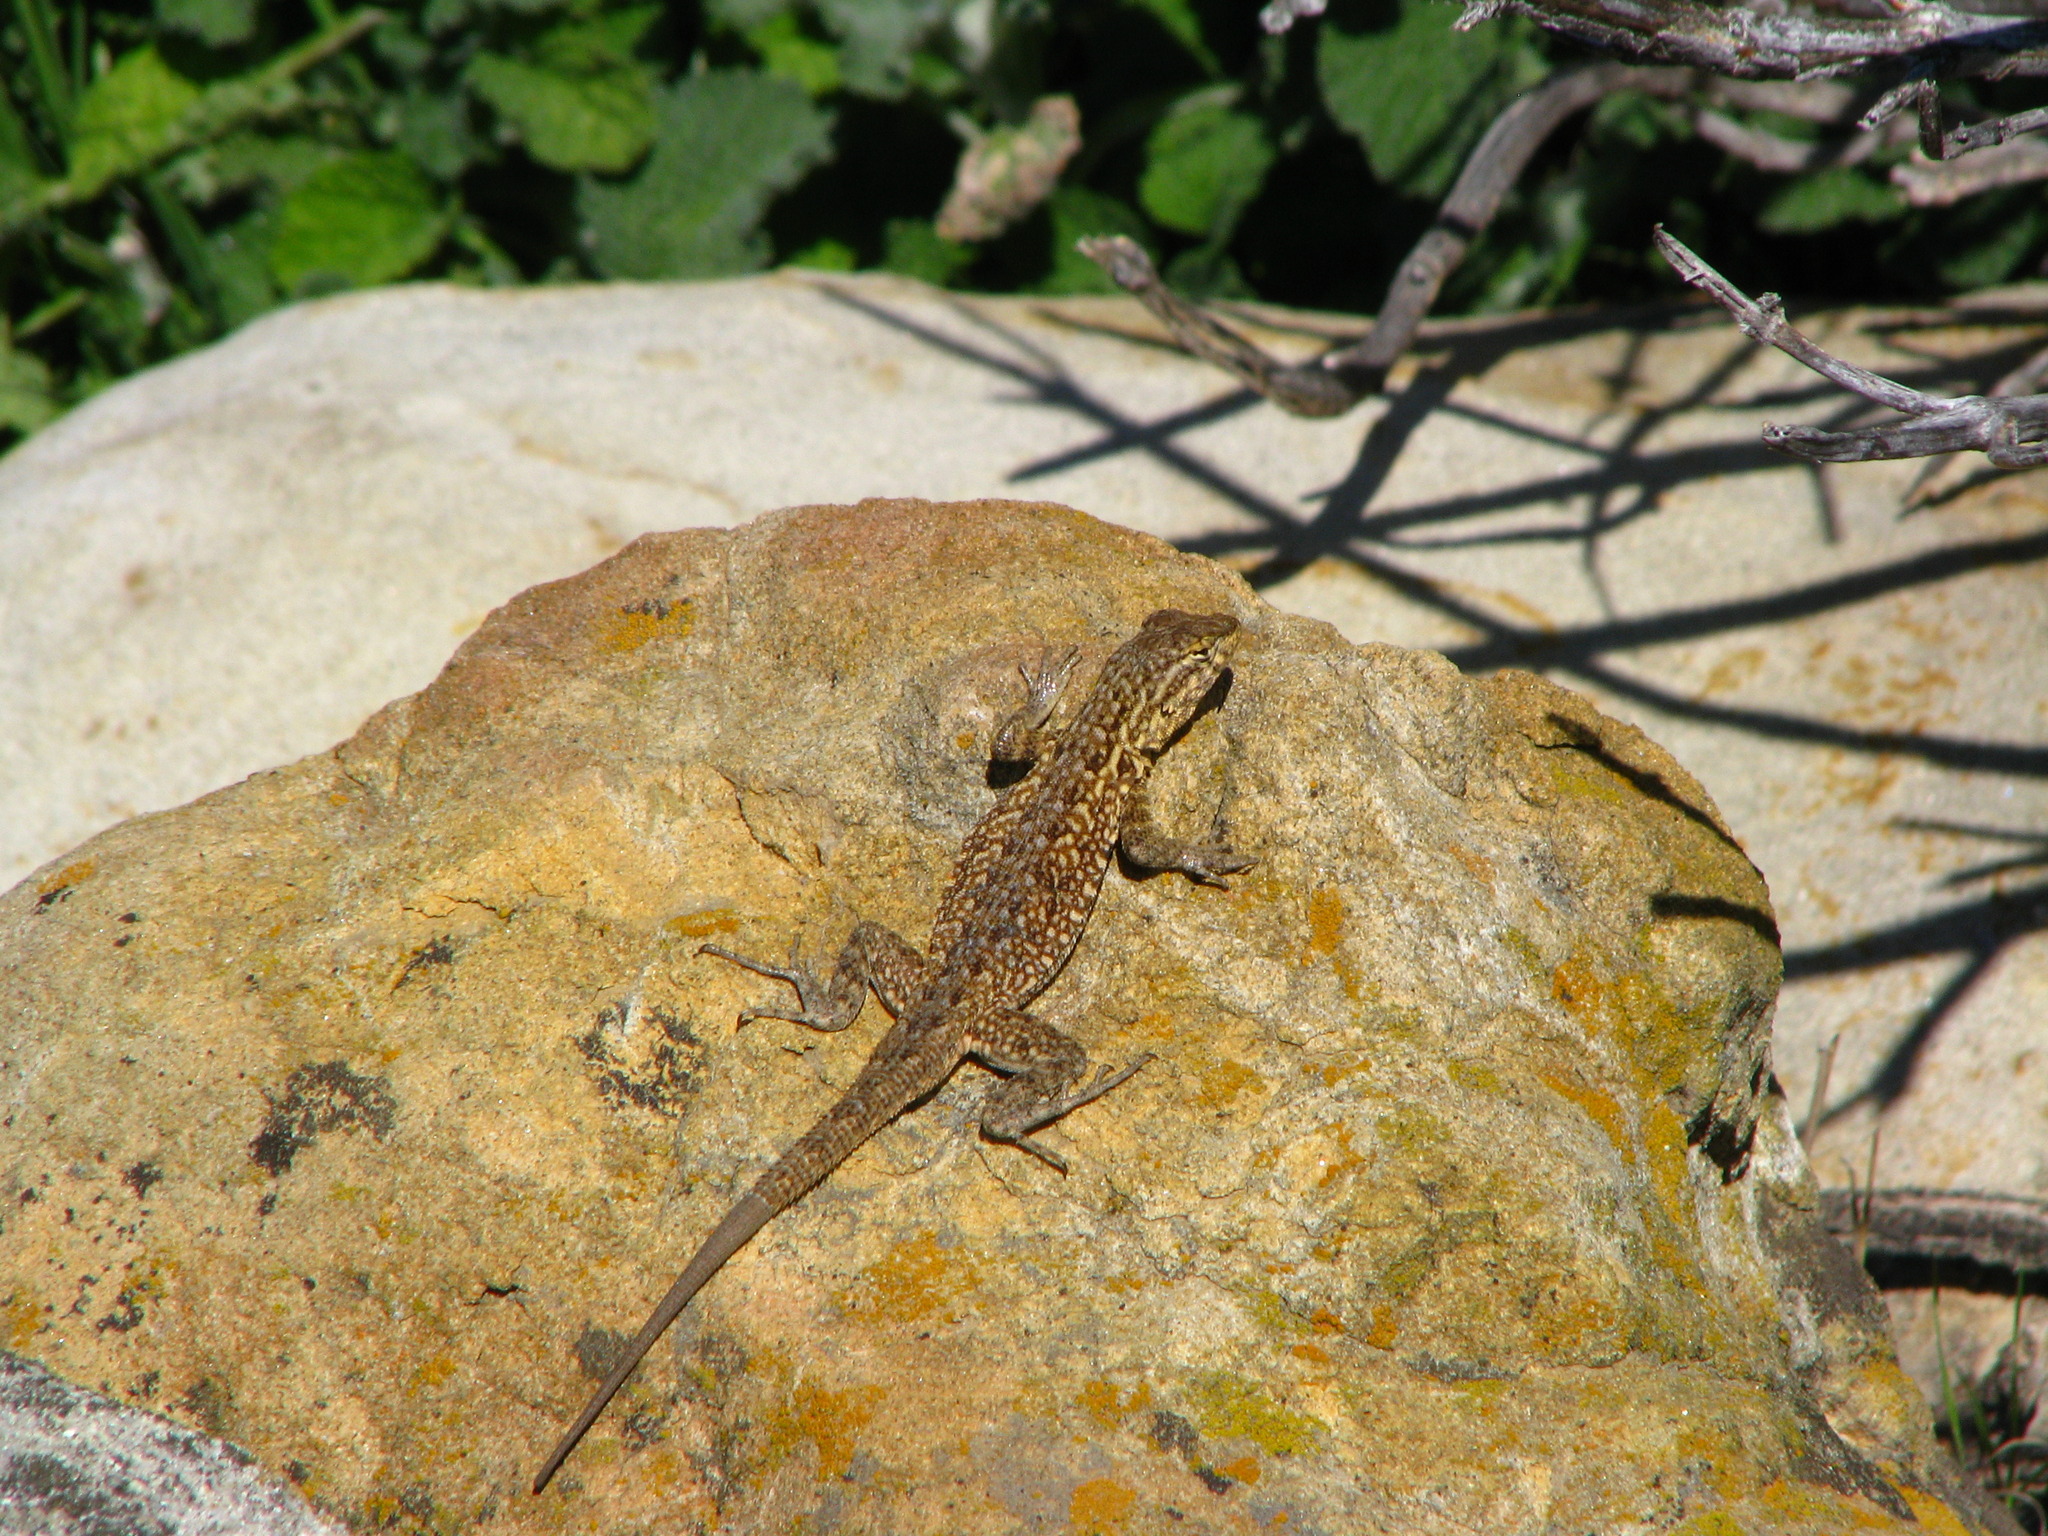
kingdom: Animalia
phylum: Chordata
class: Squamata
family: Phrynosomatidae
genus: Uta
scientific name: Uta stansburiana
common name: Side-blotched lizard
